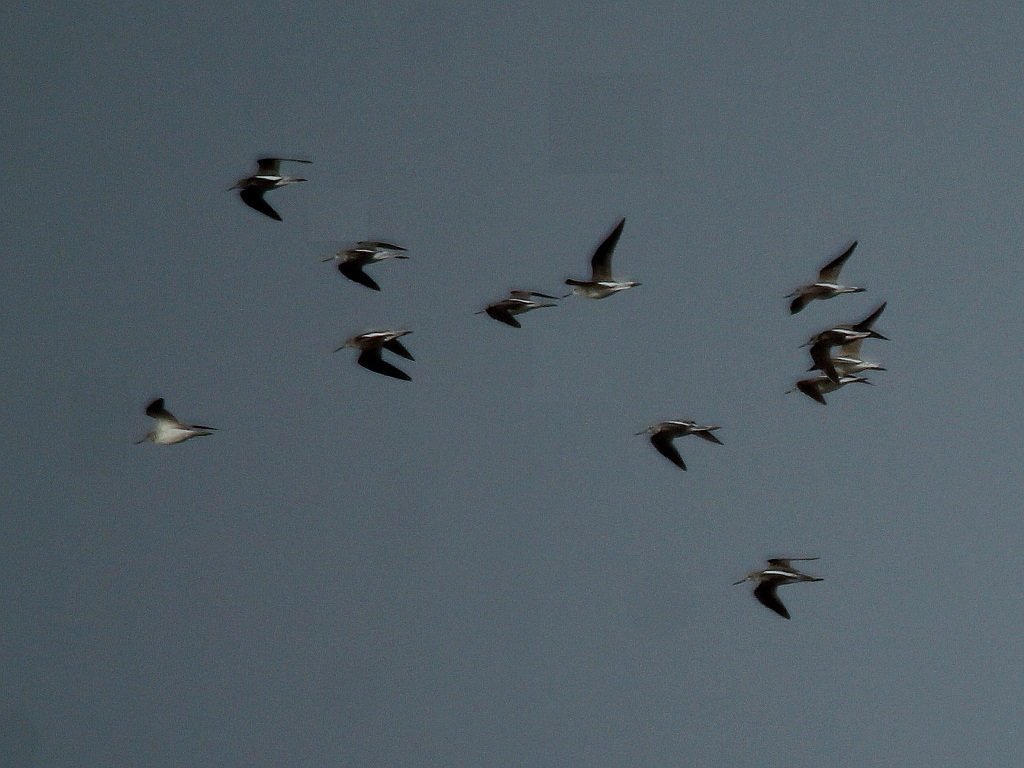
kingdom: Animalia
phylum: Chordata
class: Aves
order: Charadriiformes
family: Scolopacidae
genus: Tringa
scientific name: Tringa nebularia
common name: Common greenshank
